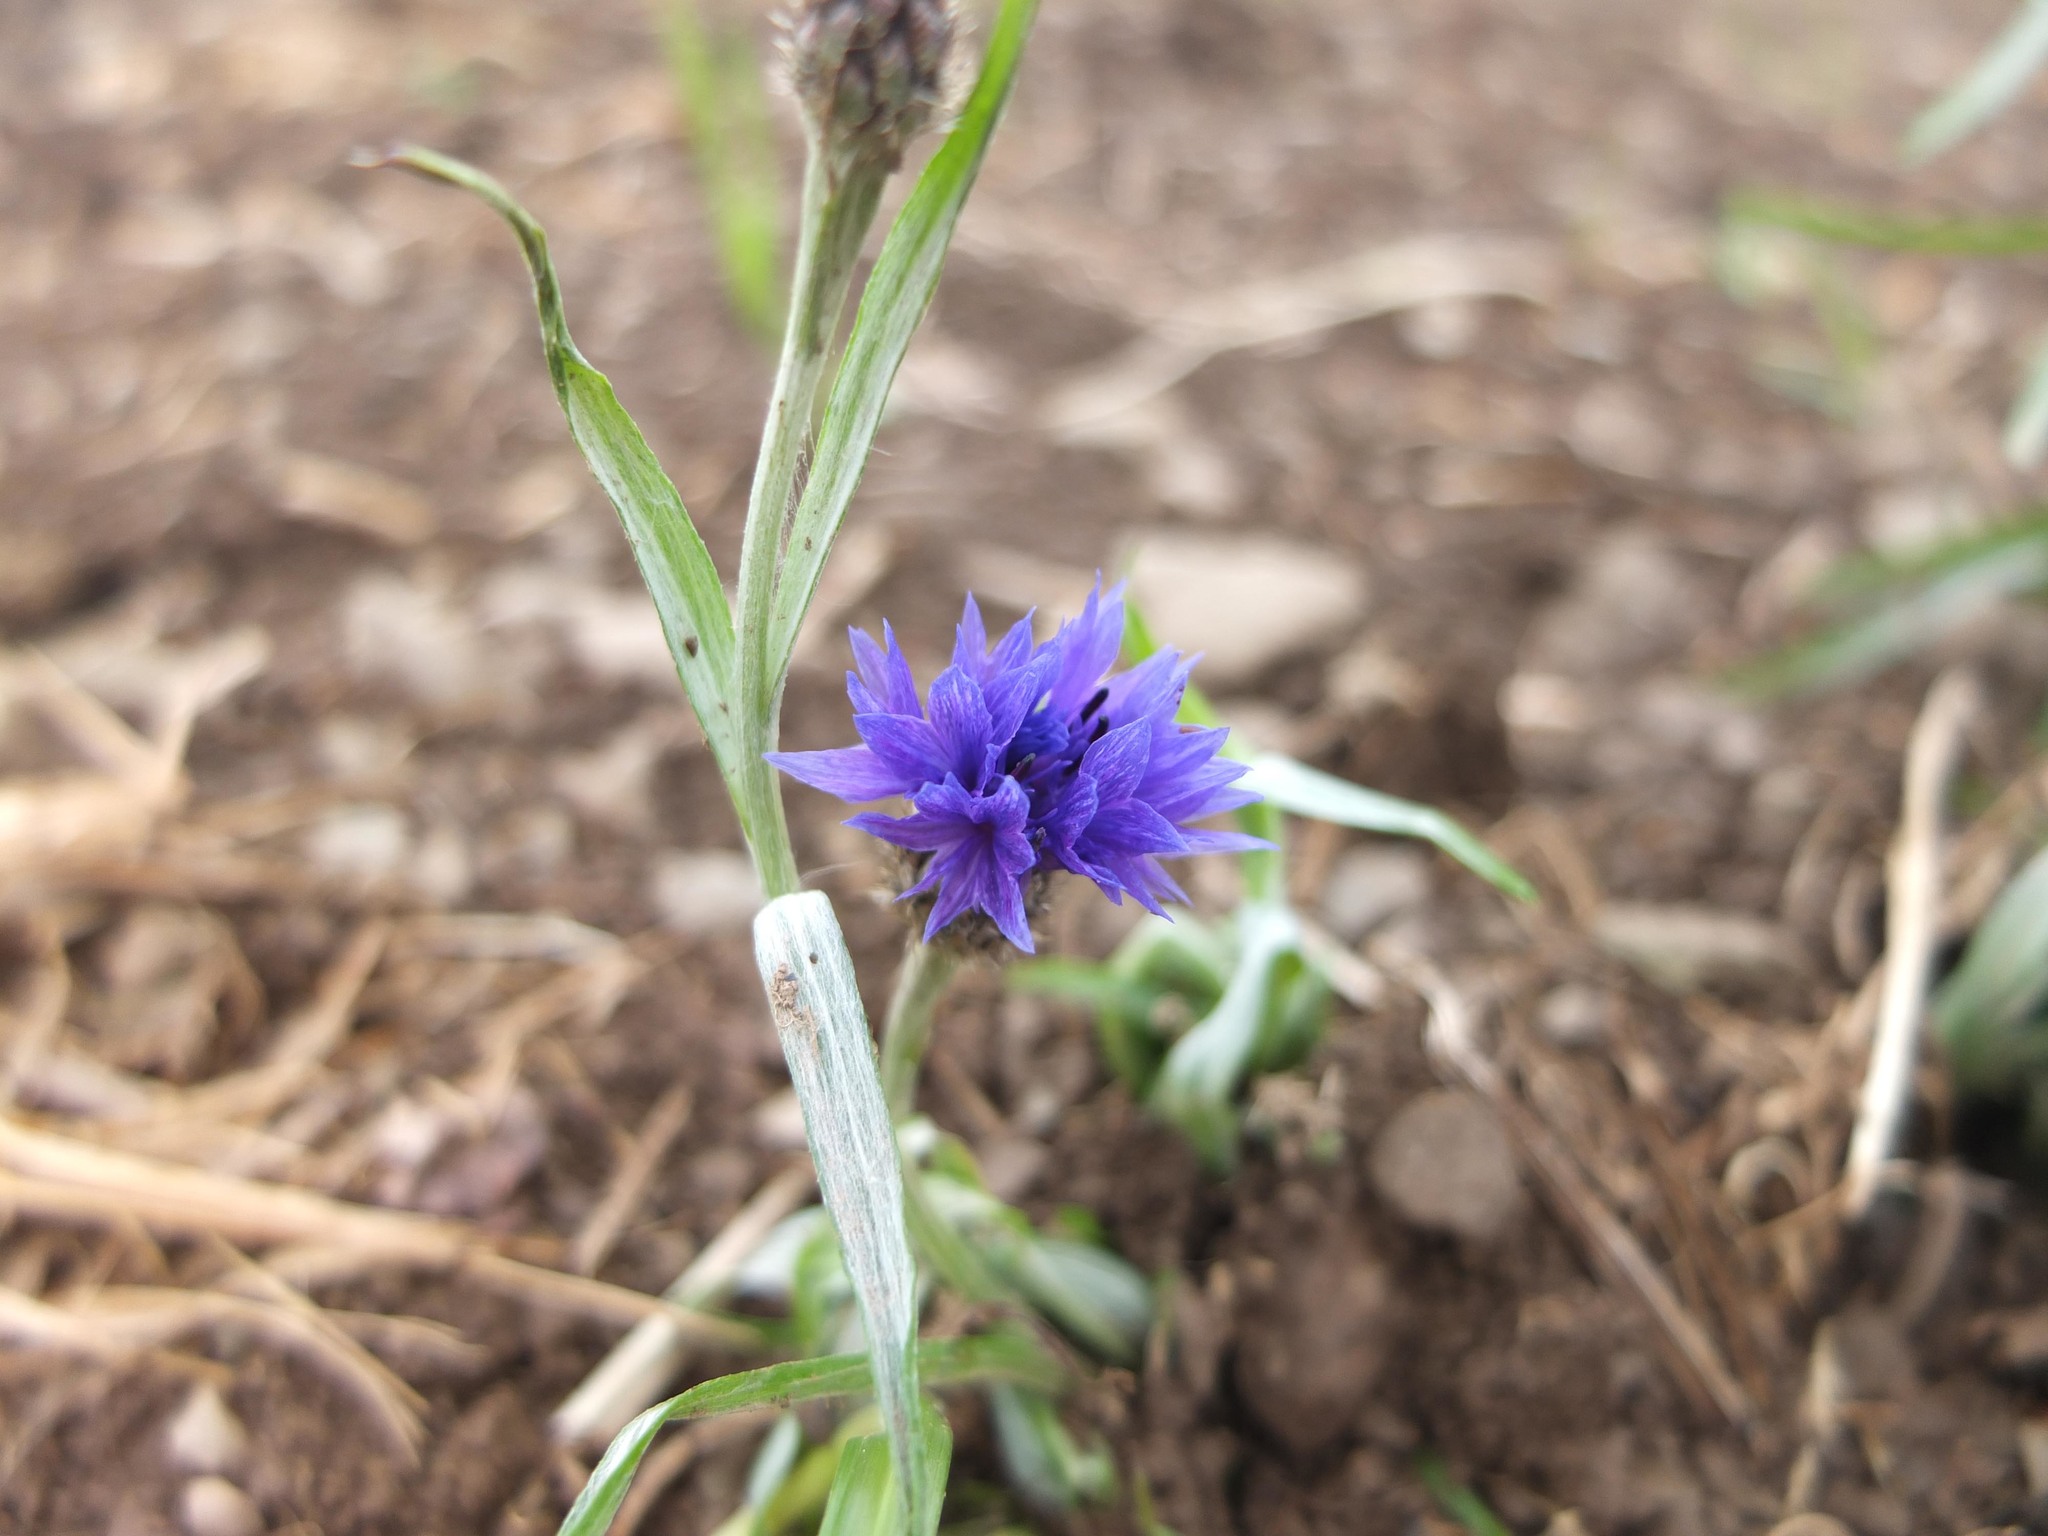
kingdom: Plantae
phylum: Tracheophyta
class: Magnoliopsida
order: Asterales
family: Asteraceae
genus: Centaurea
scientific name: Centaurea cyanus
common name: Cornflower
